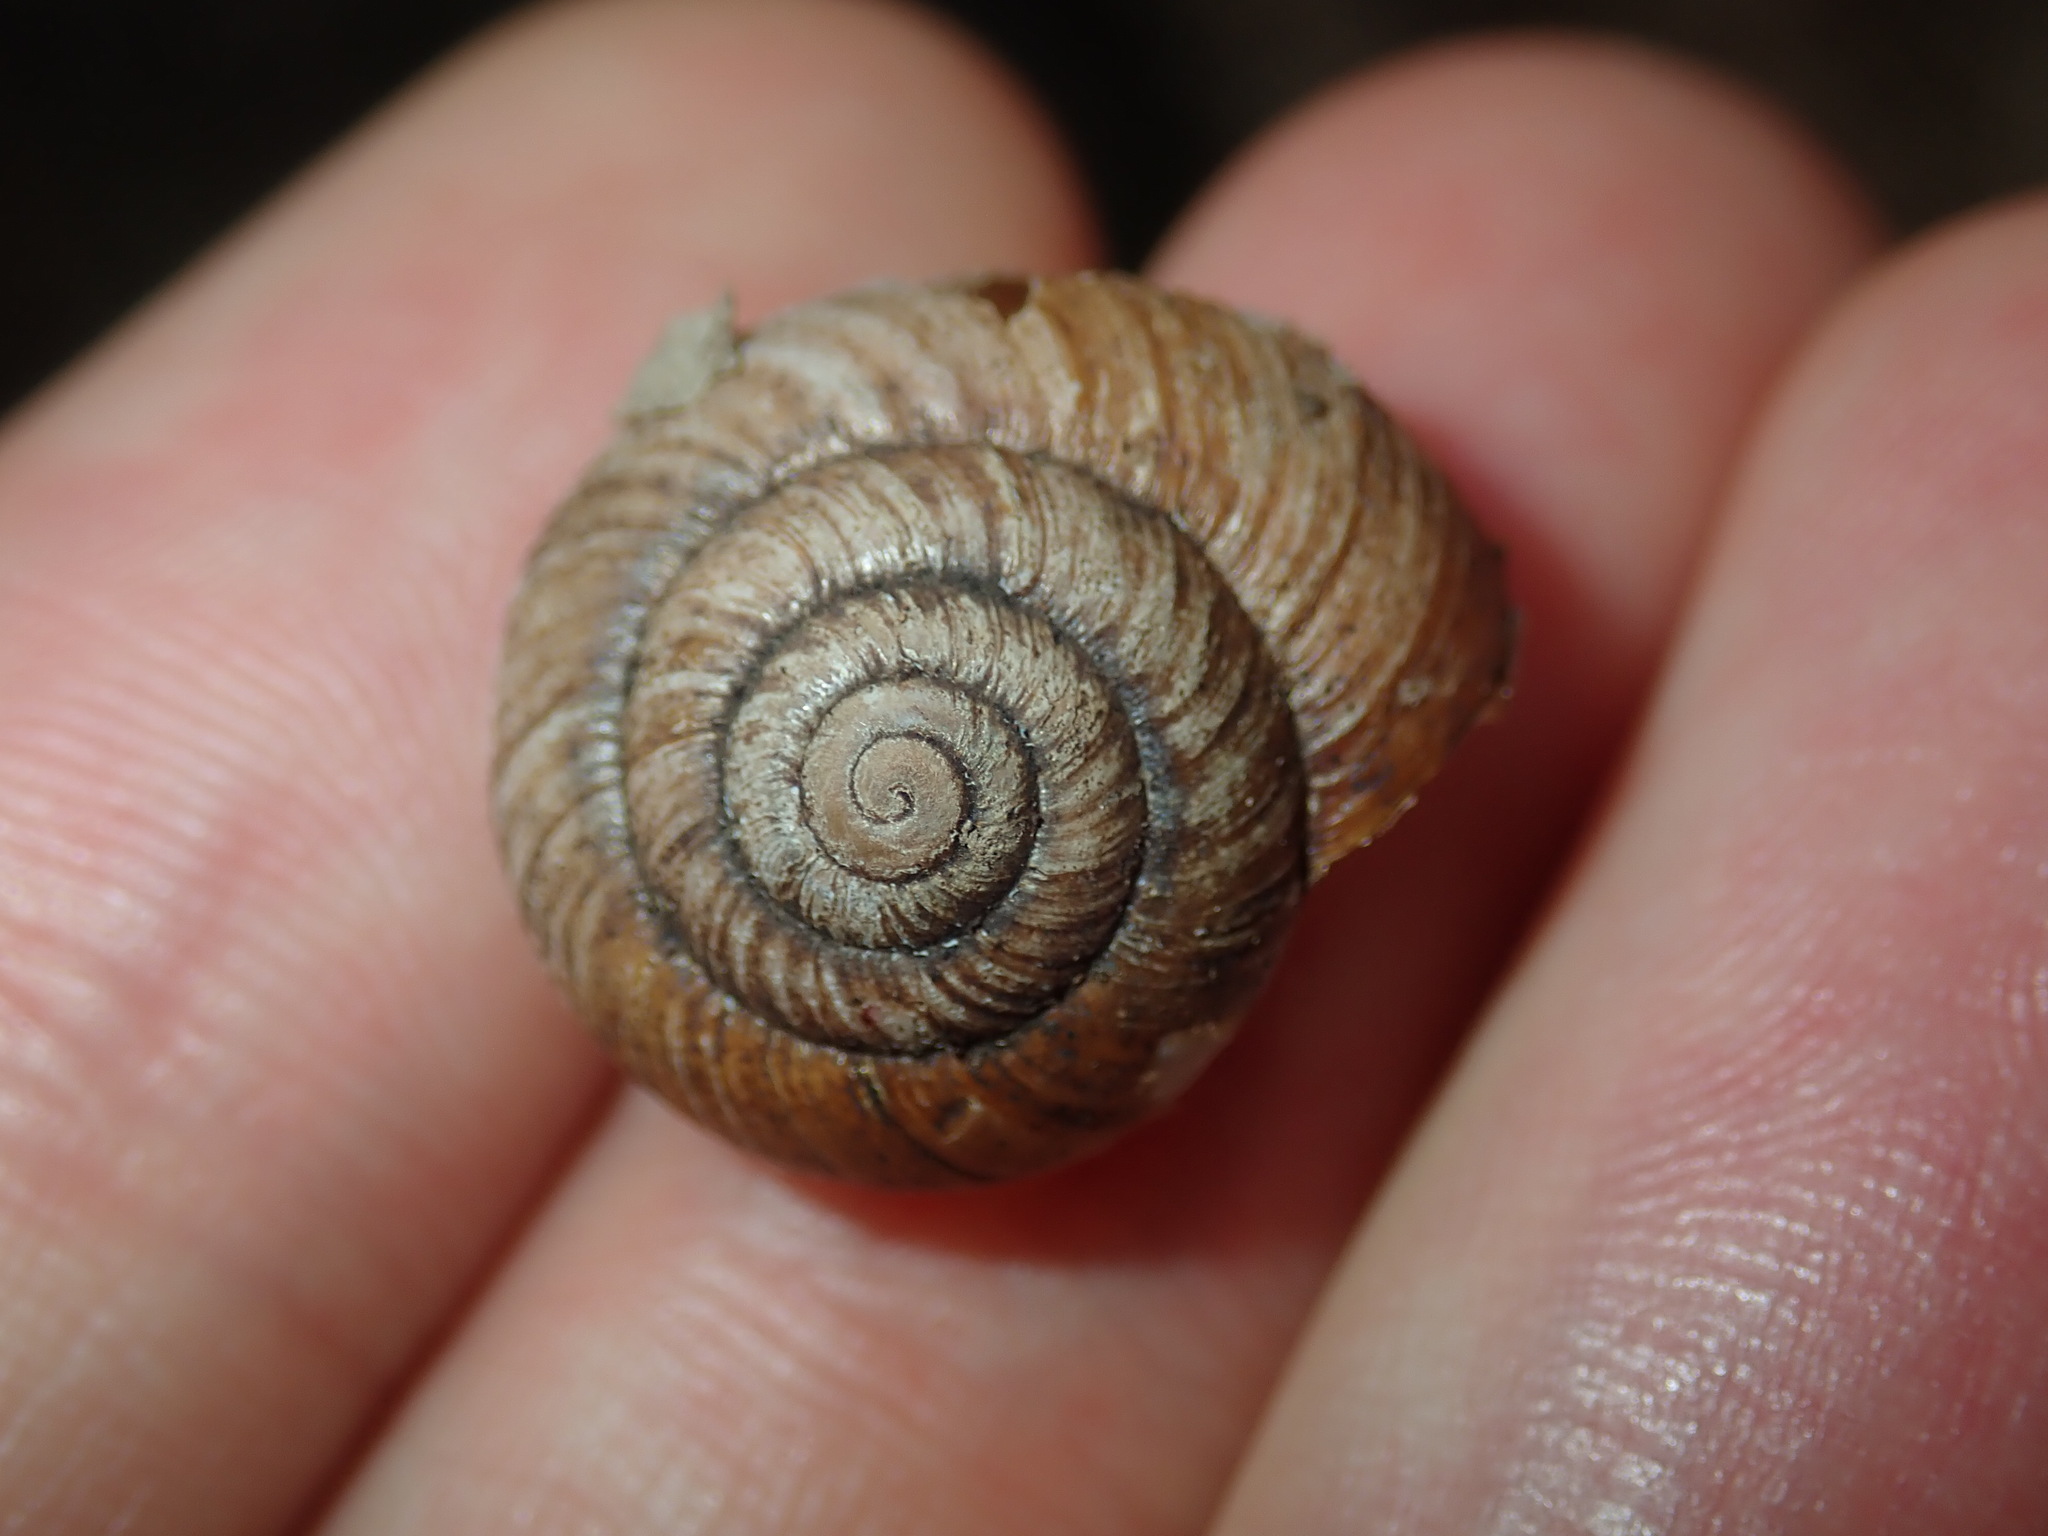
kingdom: Animalia
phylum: Mollusca
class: Gastropoda
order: Stylommatophora
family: Camaenidae
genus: Sauroconcha
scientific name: Sauroconcha sheai
